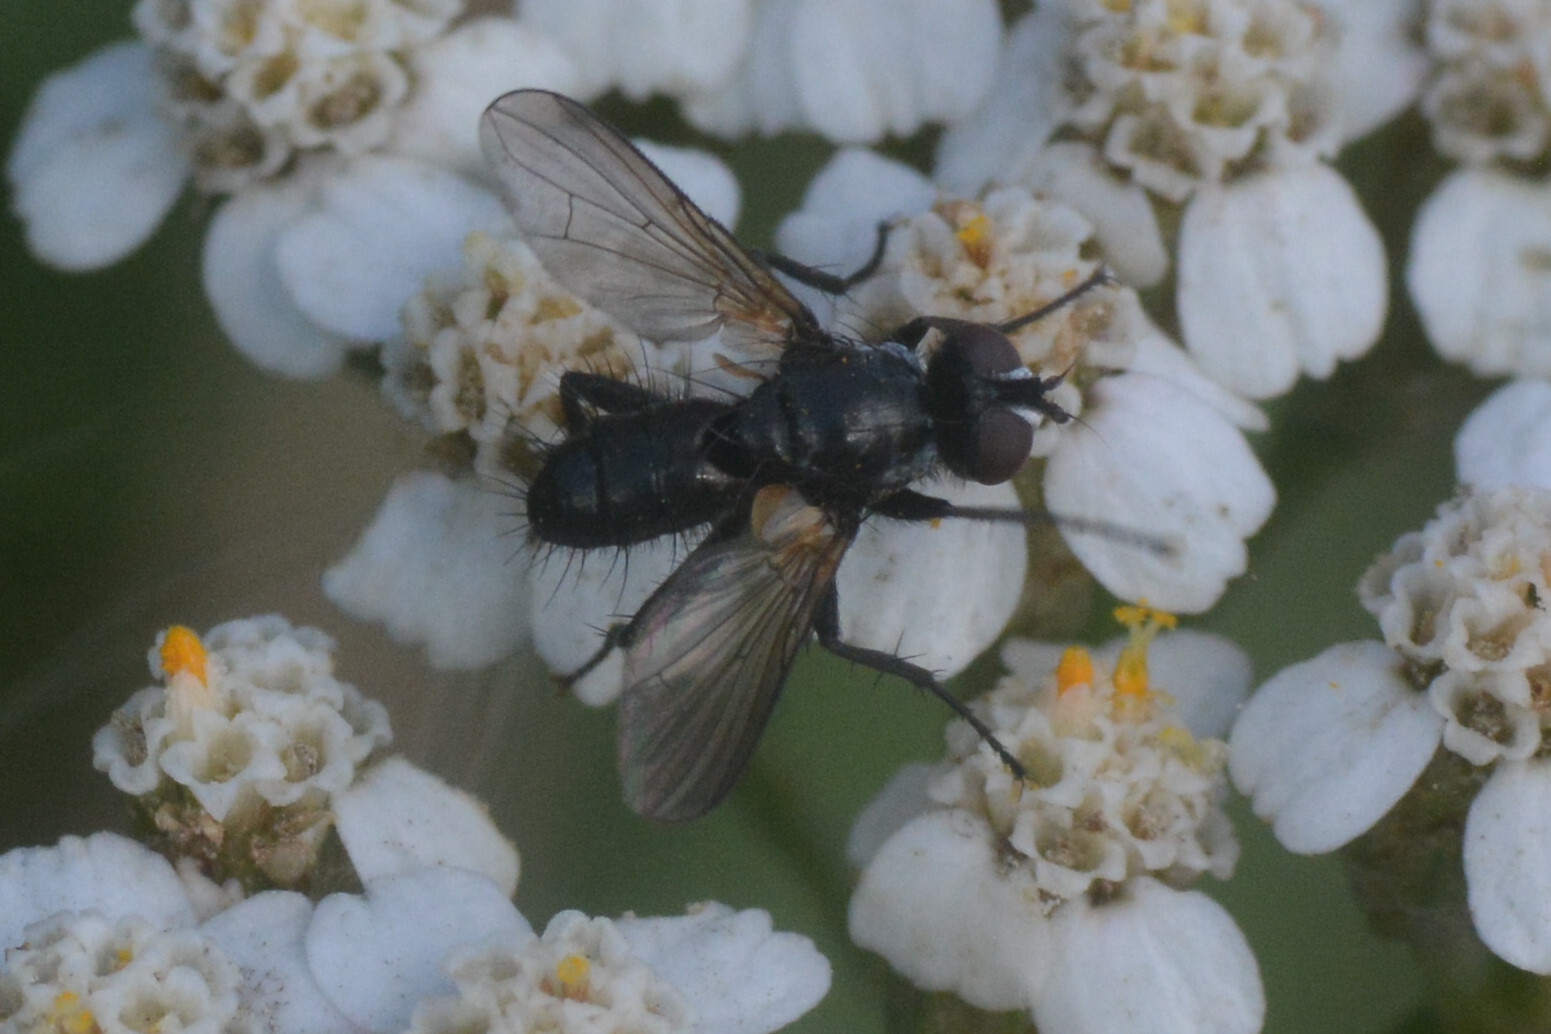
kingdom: Animalia
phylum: Arthropoda
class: Insecta
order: Diptera
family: Tachinidae
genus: Phania
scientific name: Phania funesta
